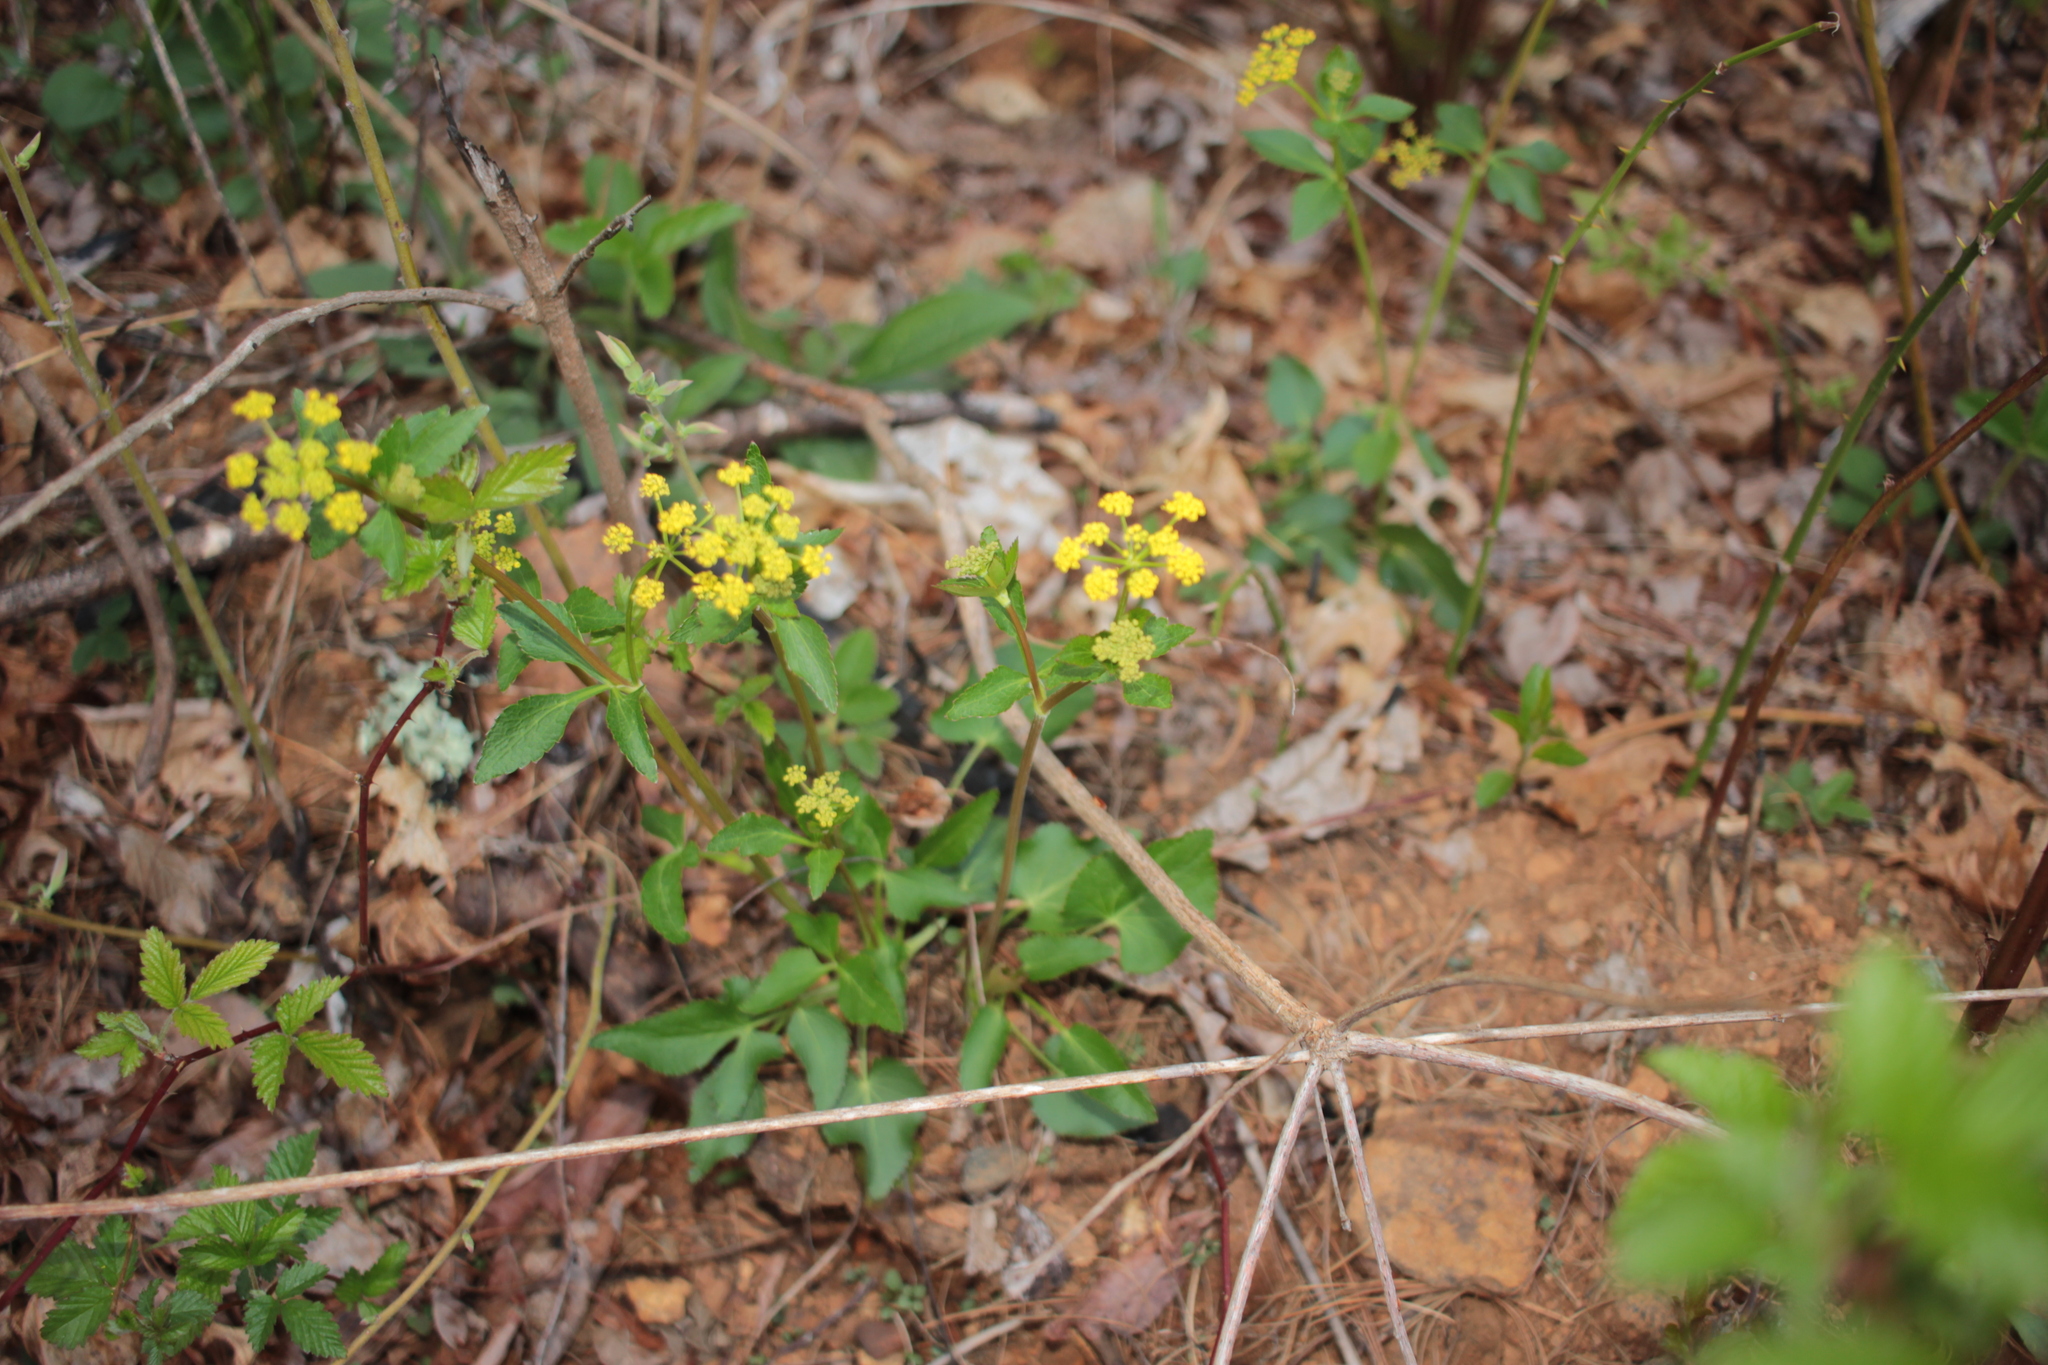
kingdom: Plantae
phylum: Tracheophyta
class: Magnoliopsida
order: Apiales
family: Apiaceae
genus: Zizia
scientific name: Zizia aptera
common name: Heart-leaved alexanders
